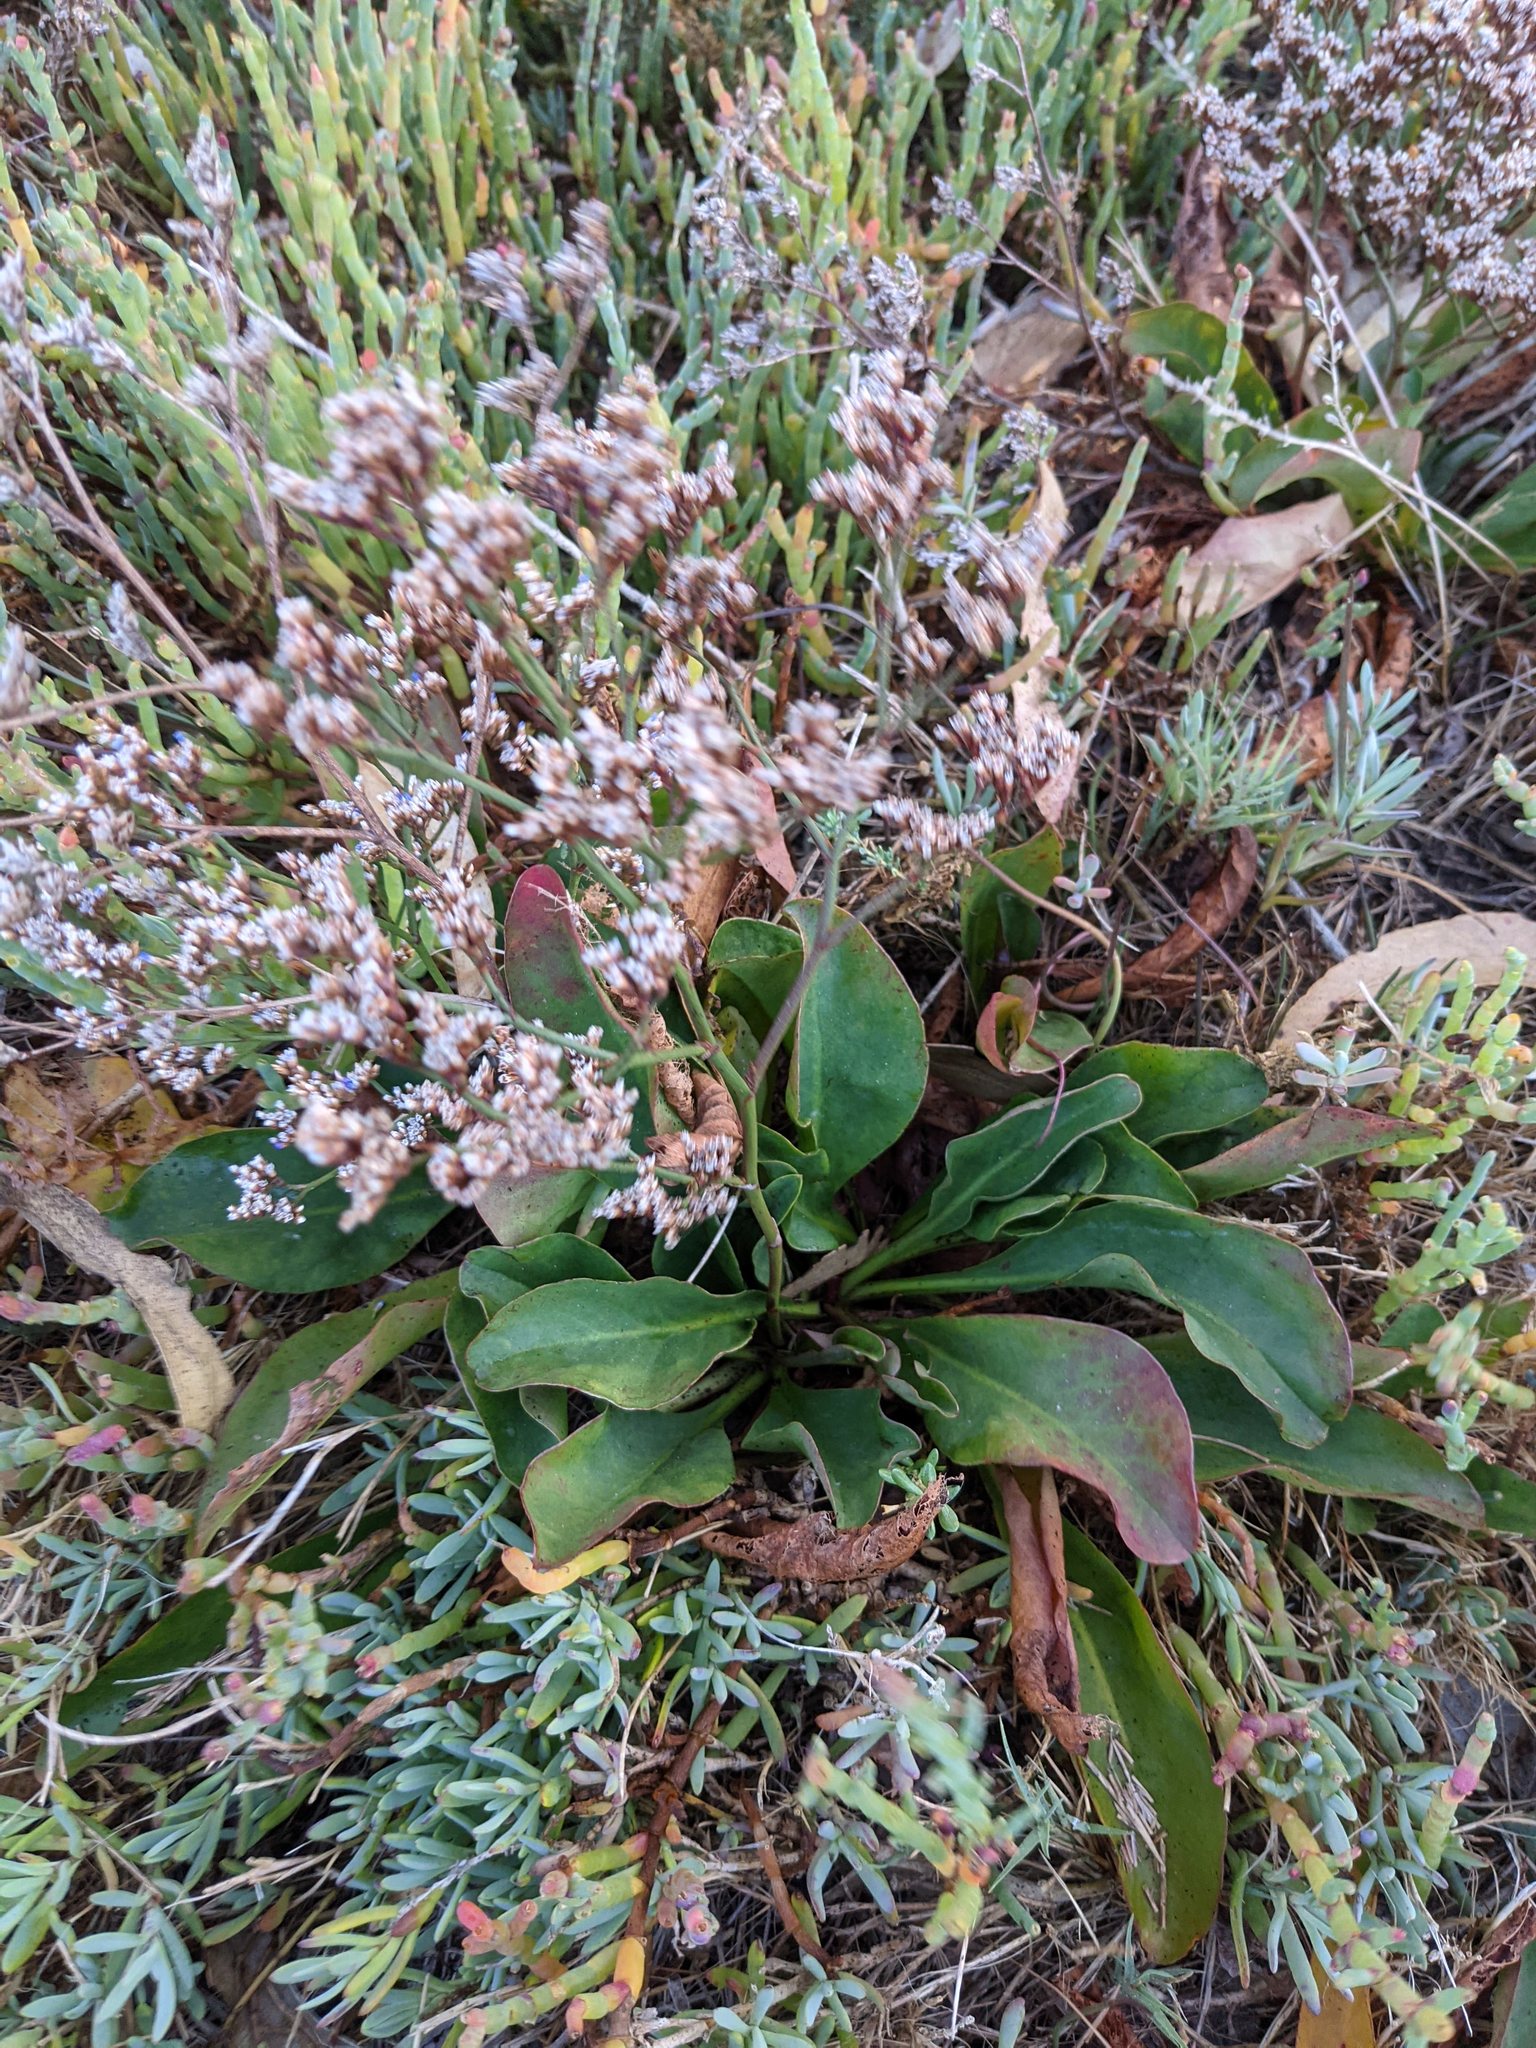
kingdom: Plantae
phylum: Tracheophyta
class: Magnoliopsida
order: Caryophyllales
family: Plumbaginaceae
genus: Limonium
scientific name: Limonium californicum
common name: Marsh-rosemary
